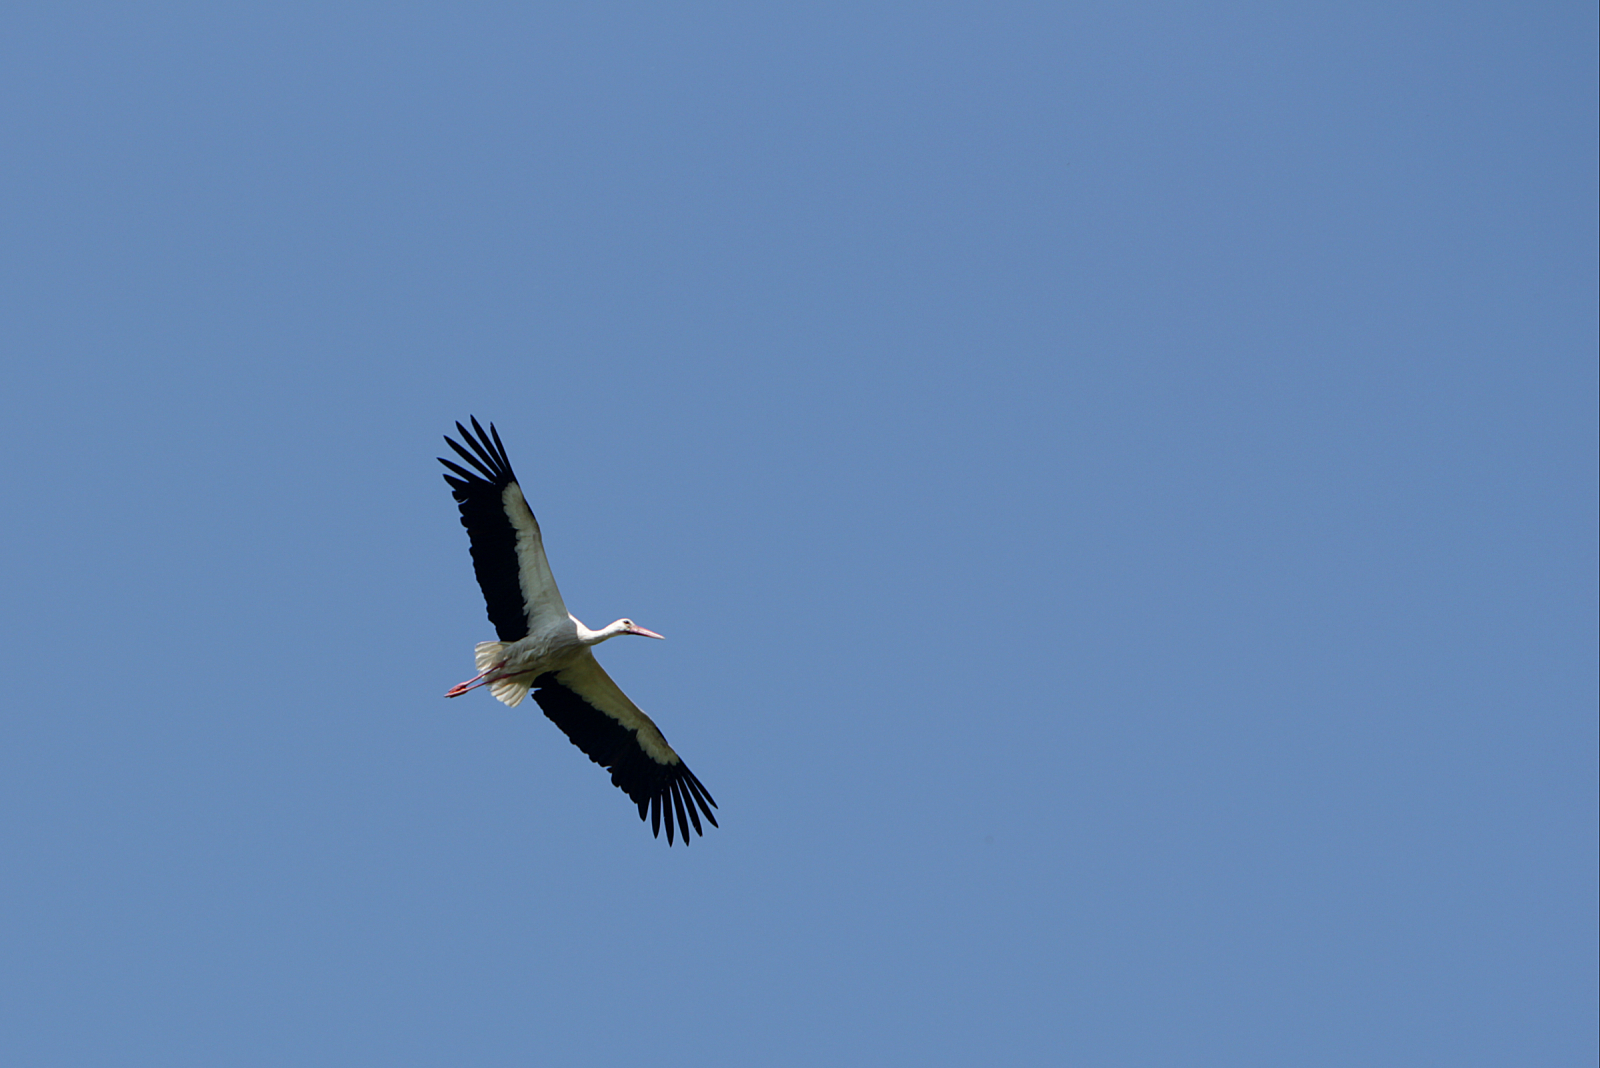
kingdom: Animalia
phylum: Chordata
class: Aves
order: Ciconiiformes
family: Ciconiidae
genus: Ciconia
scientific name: Ciconia ciconia
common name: White stork
